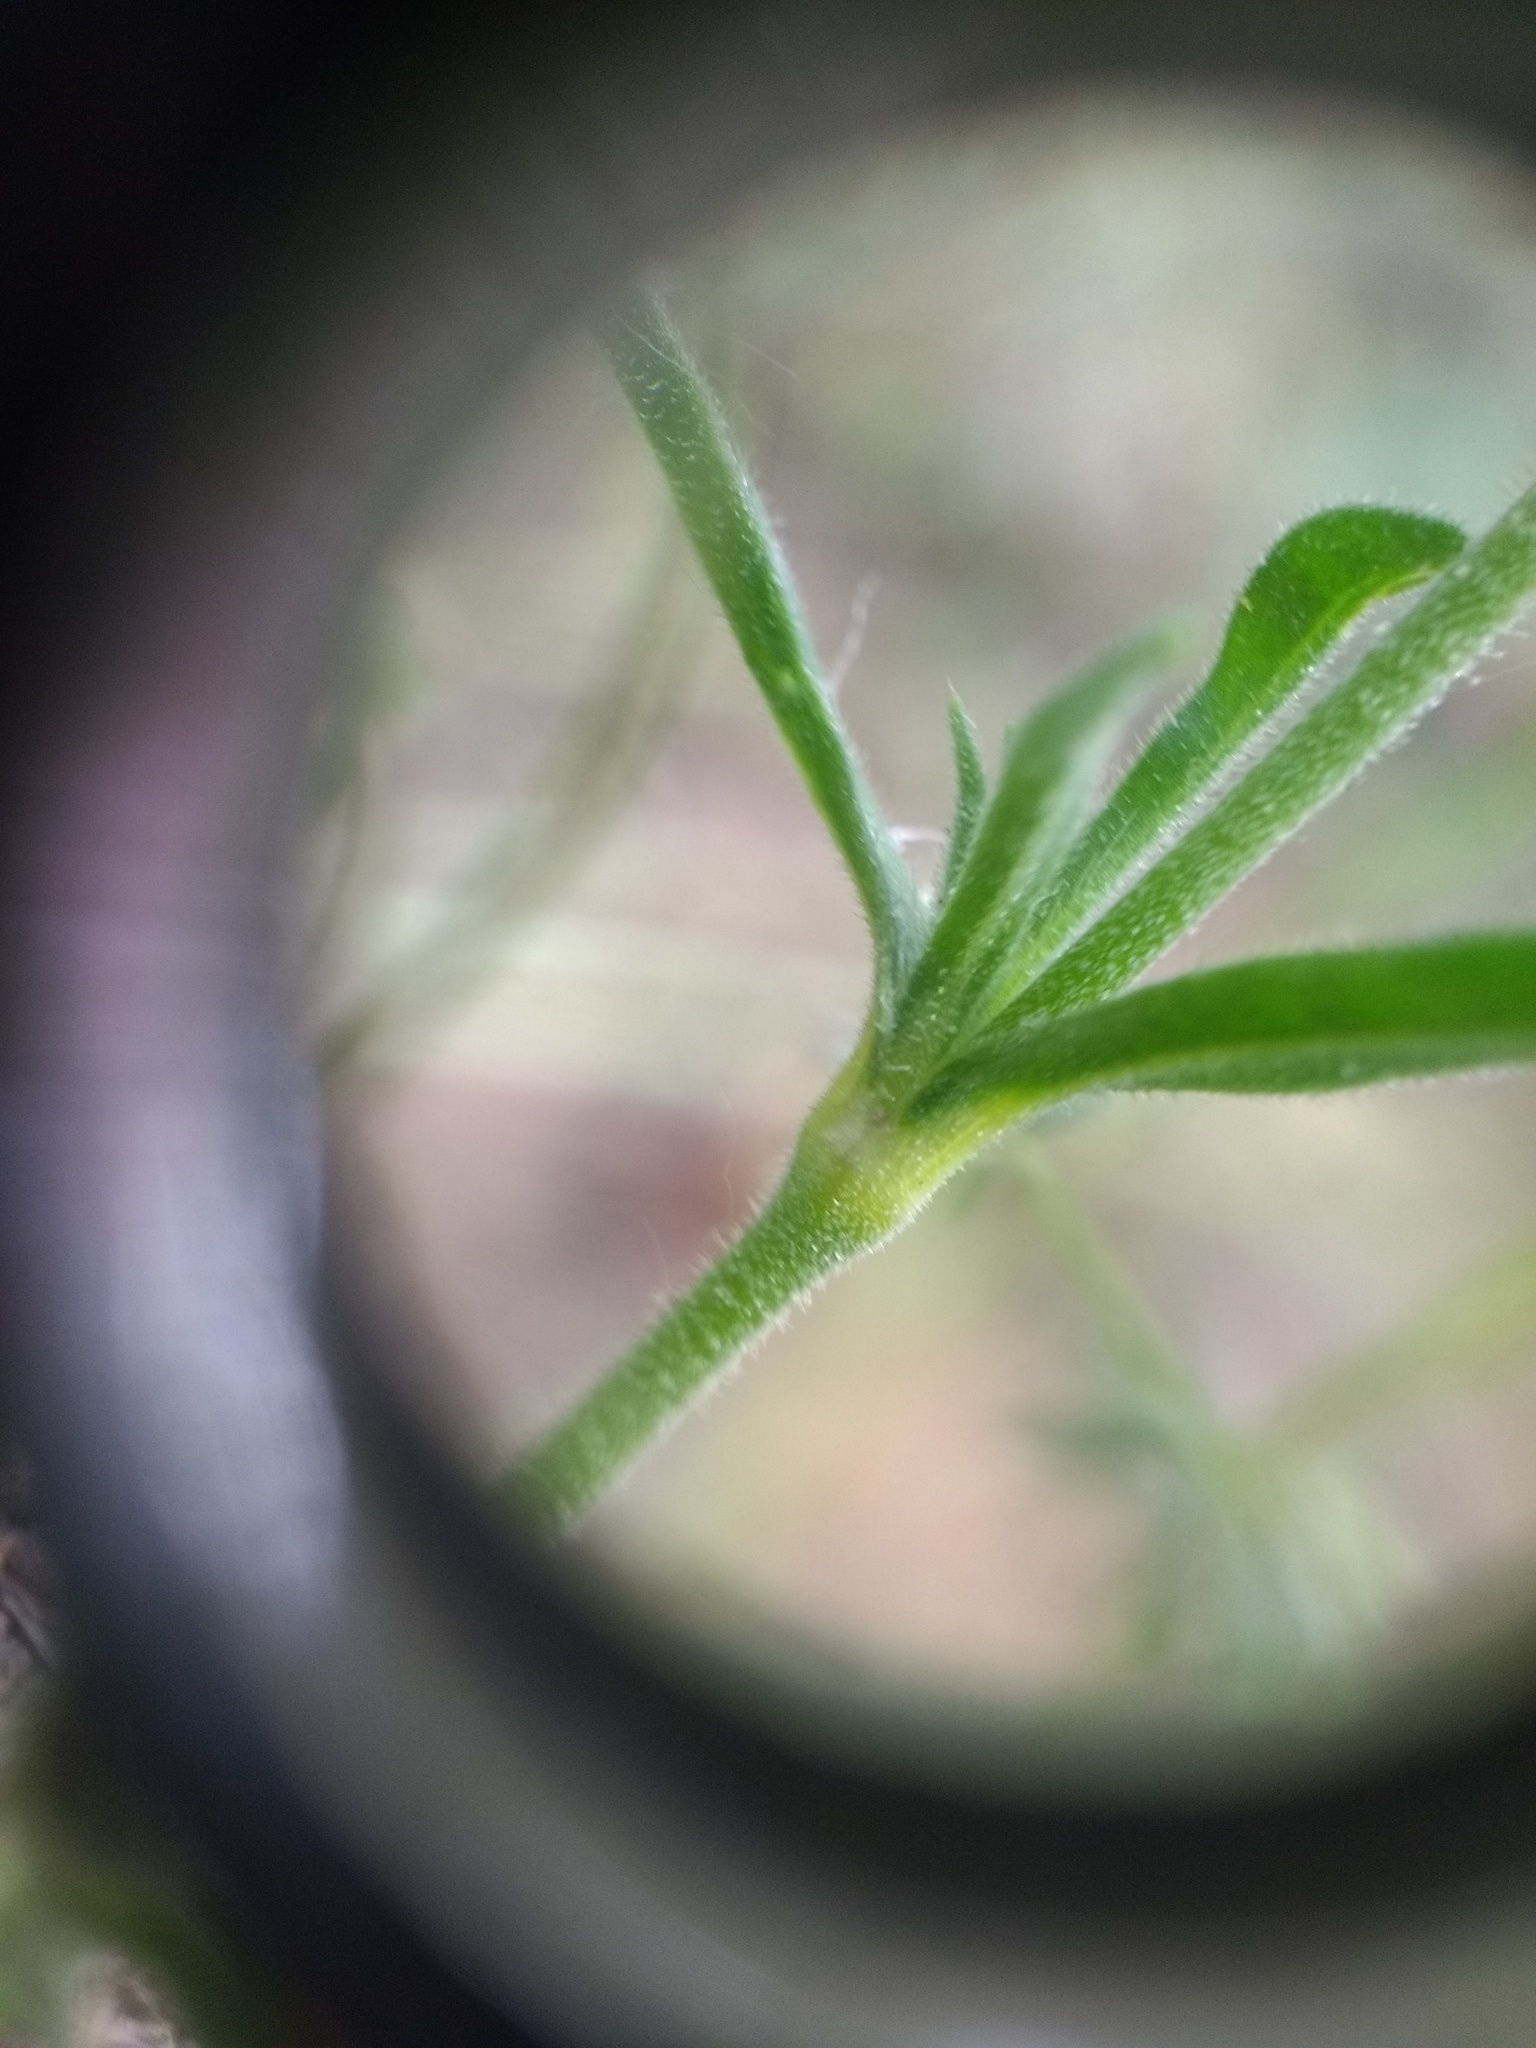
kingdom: Plantae
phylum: Tracheophyta
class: Magnoliopsida
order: Caryophyllales
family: Caryophyllaceae
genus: Silene
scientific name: Silene gallica
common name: Small-flowered catchfly
